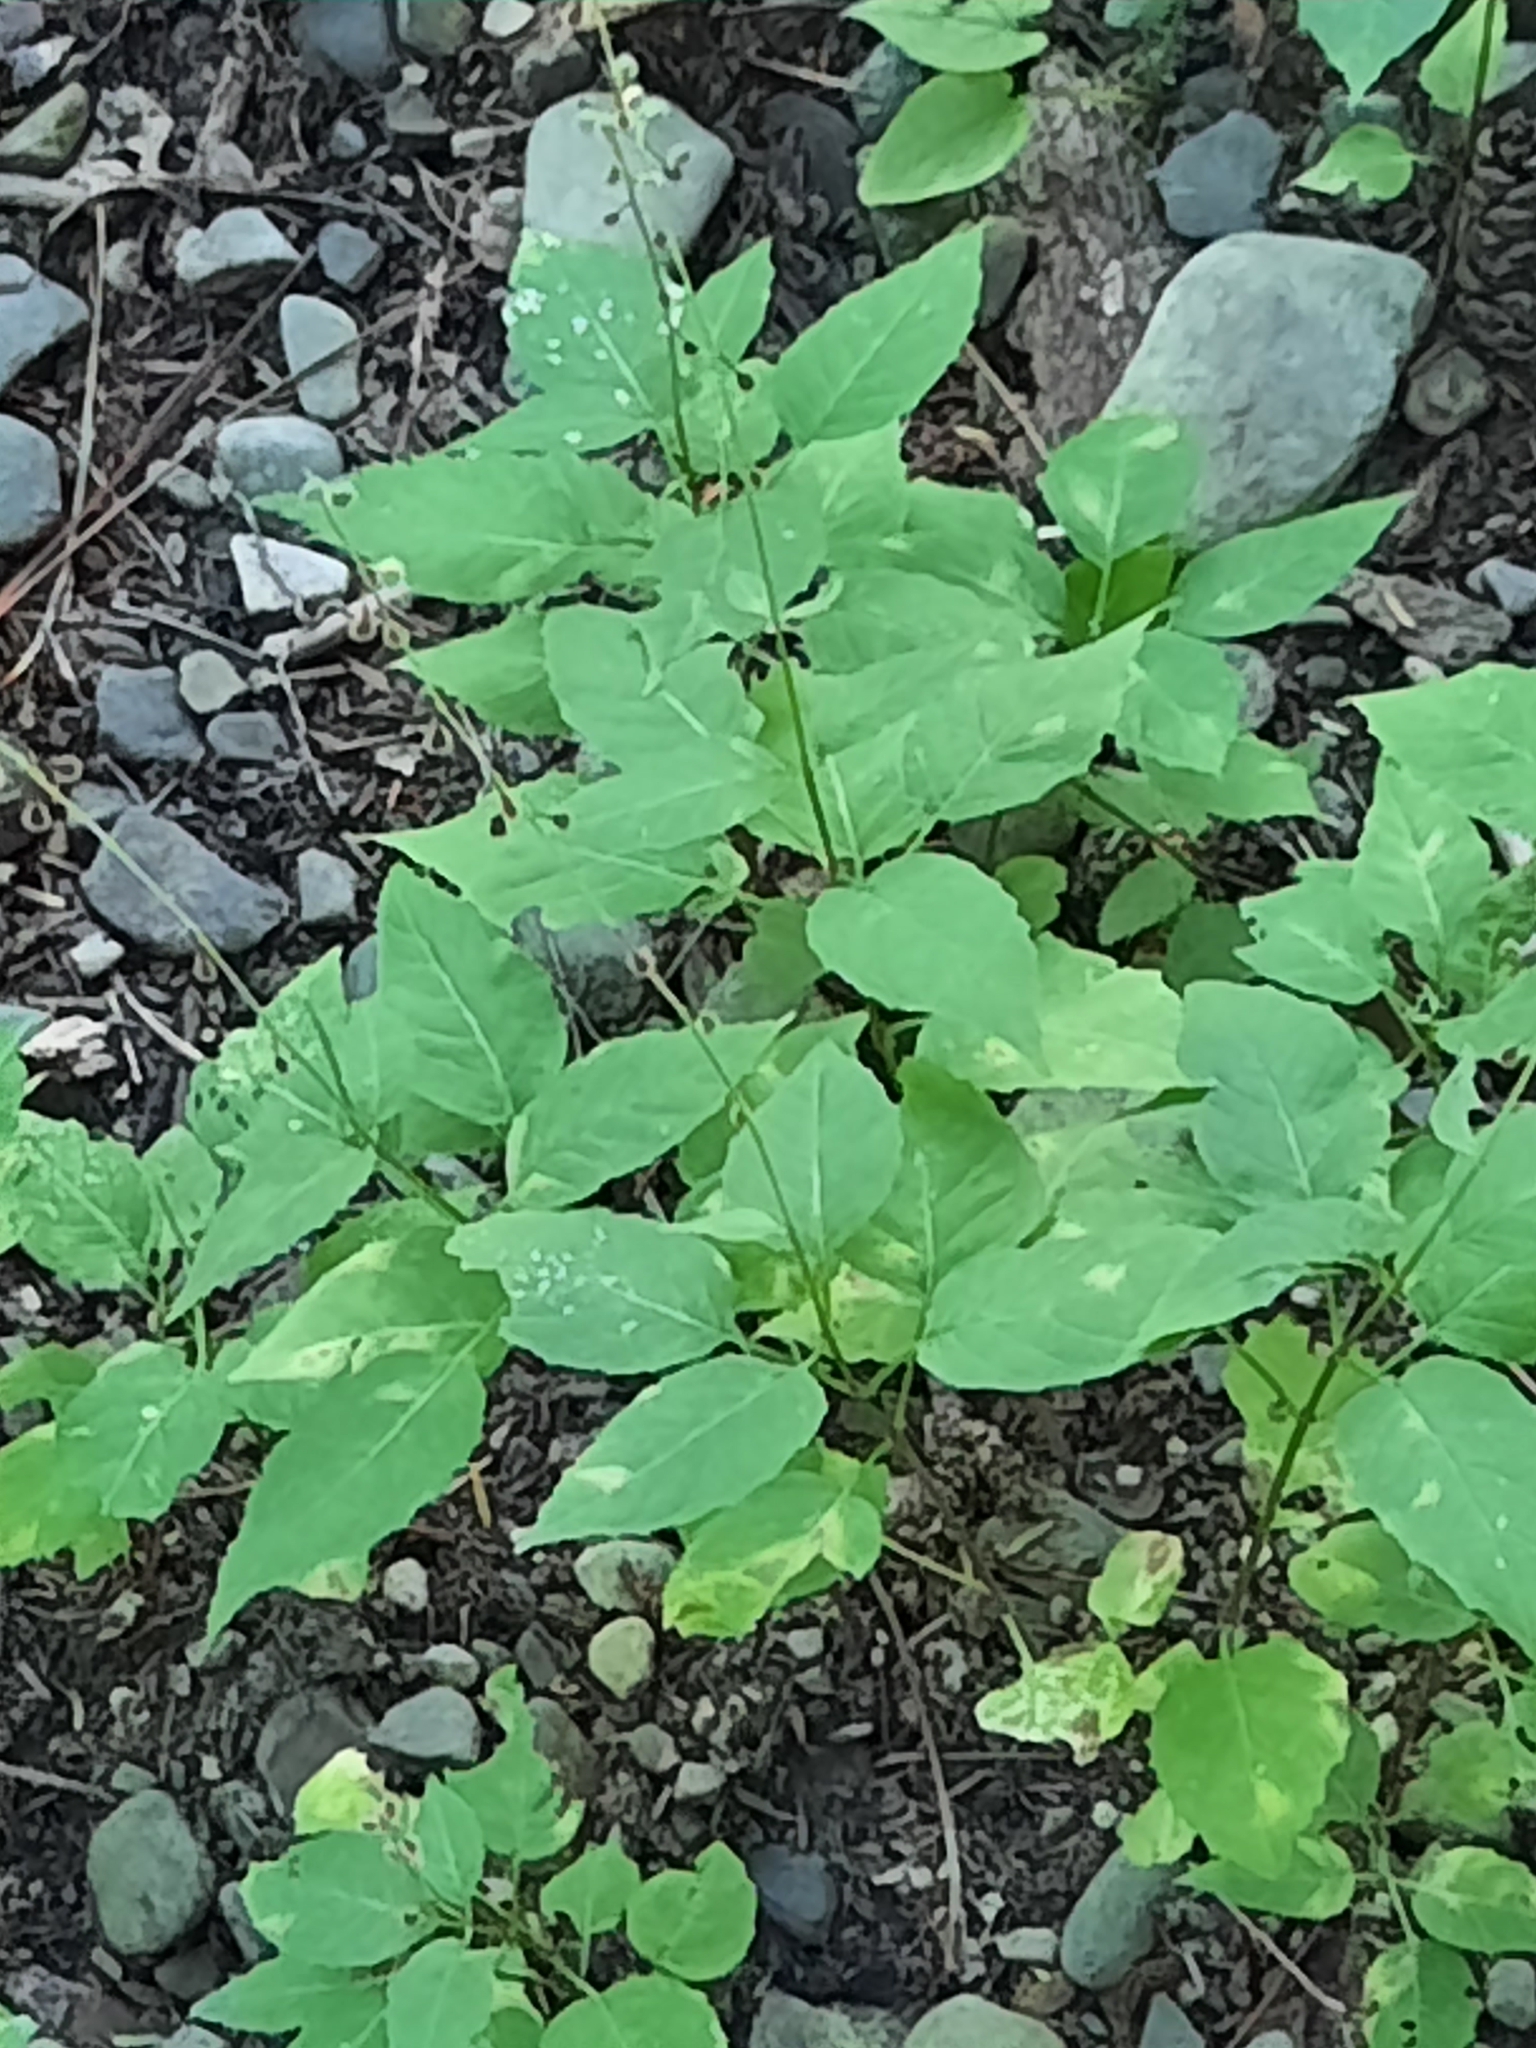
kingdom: Plantae
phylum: Tracheophyta
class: Magnoliopsida
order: Myrtales
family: Onagraceae
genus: Circaea
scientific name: Circaea canadensis
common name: Broad-leaved enchanter's nightshade
